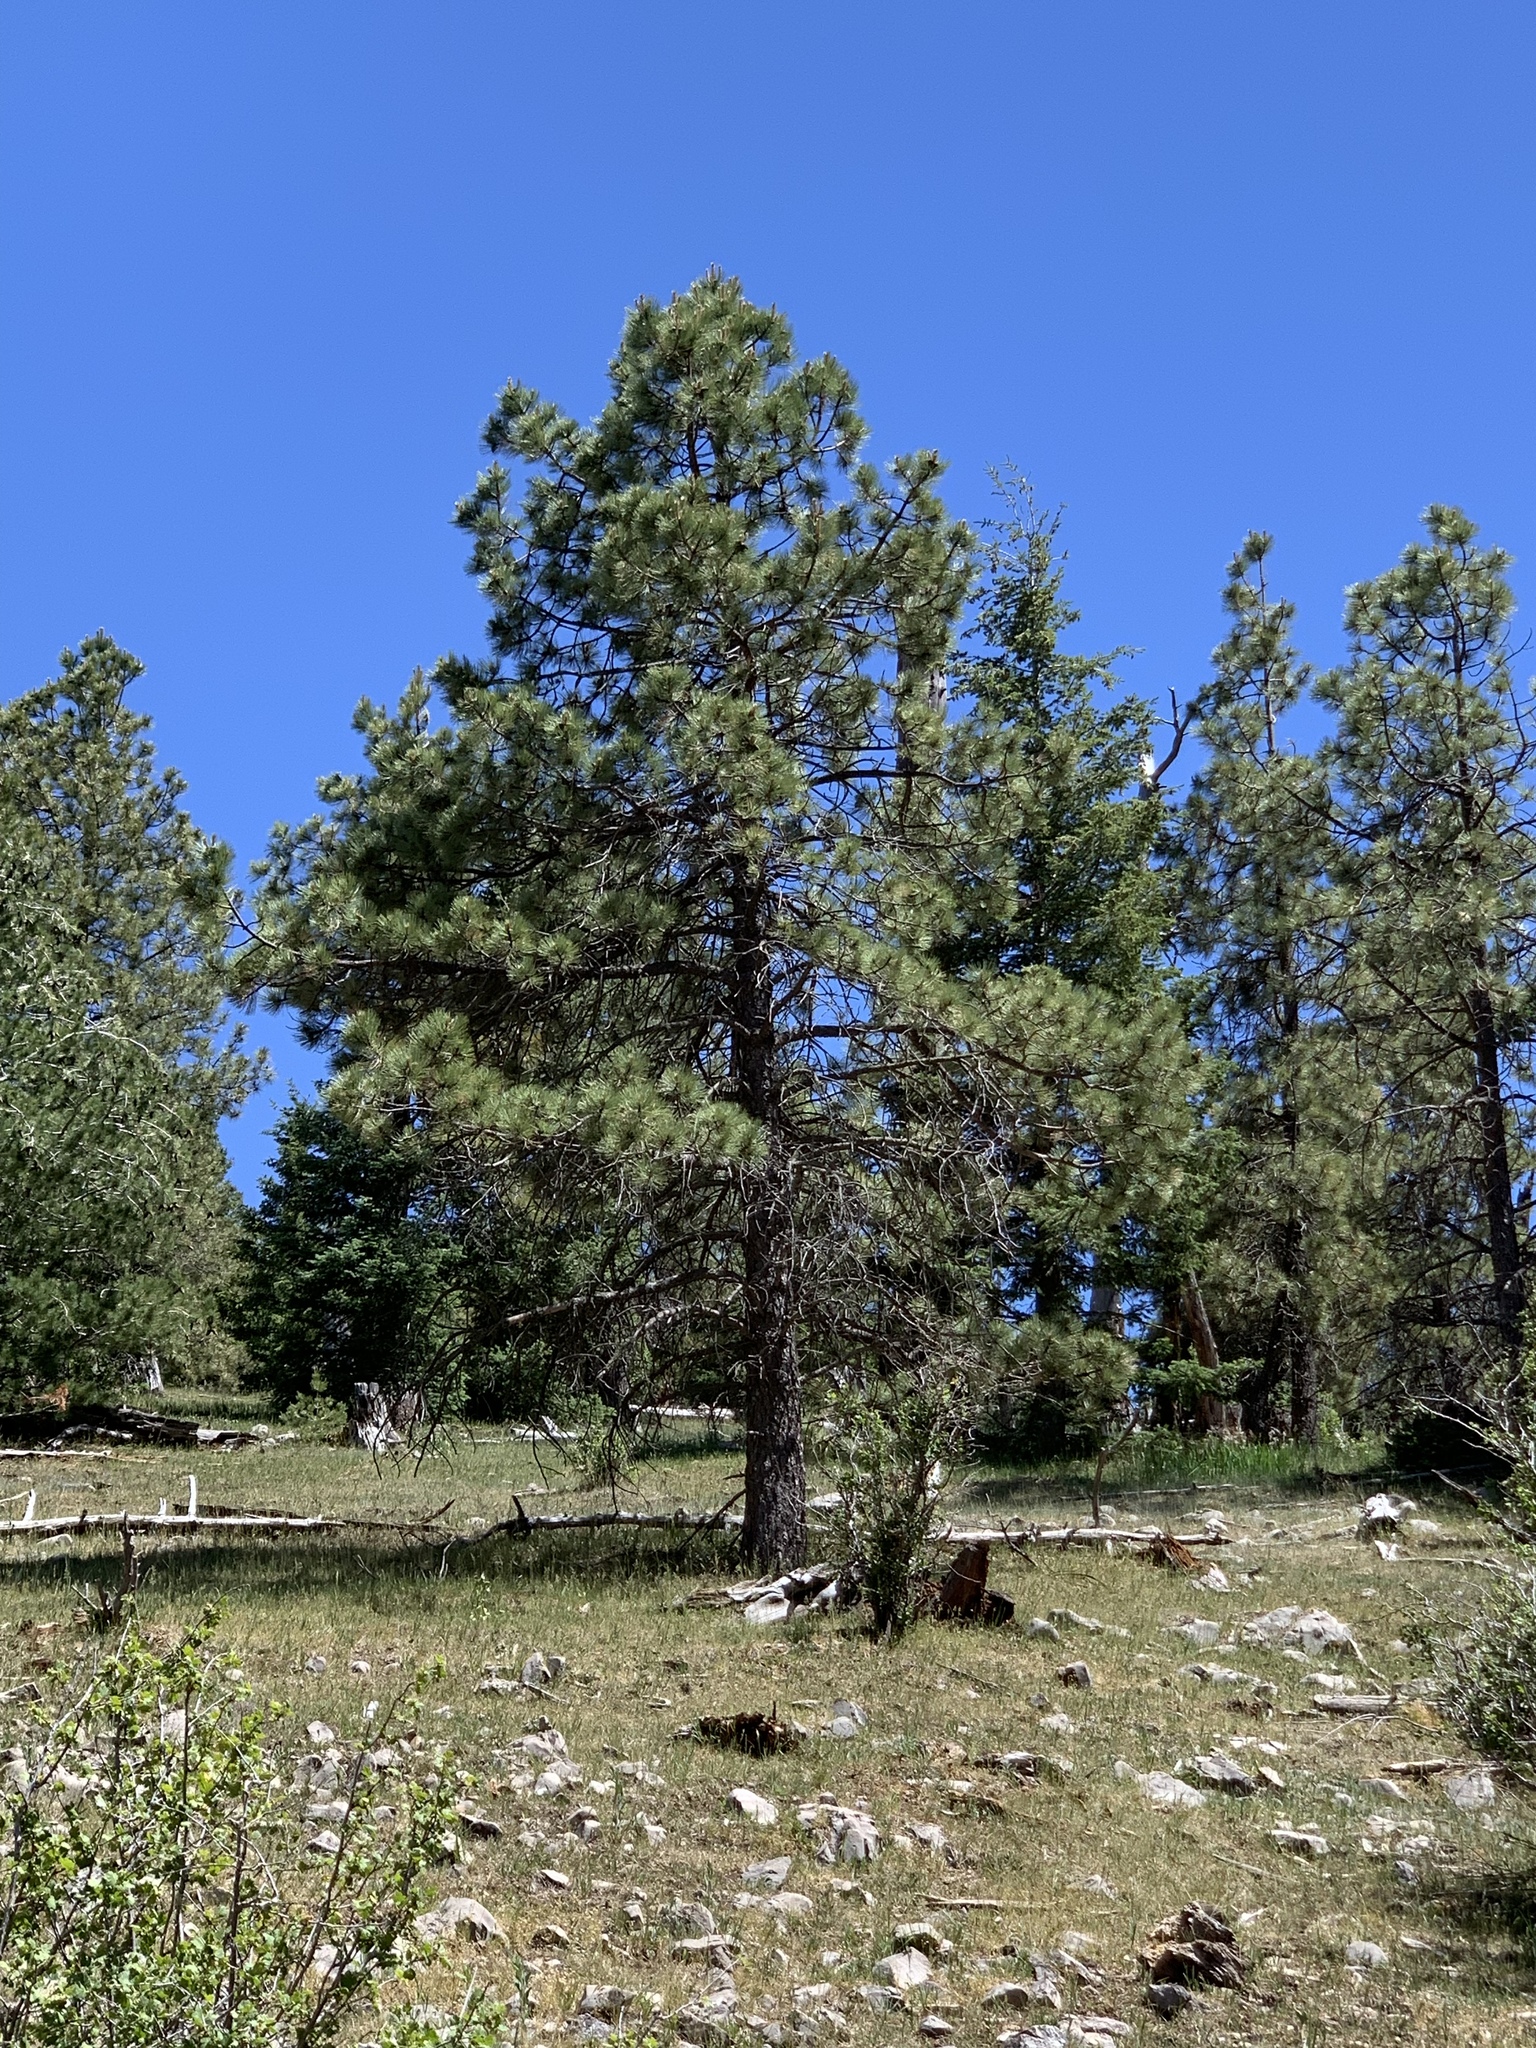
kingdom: Plantae
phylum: Tracheophyta
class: Pinopsida
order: Pinales
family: Pinaceae
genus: Pinus
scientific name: Pinus ponderosa
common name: Western yellow-pine
